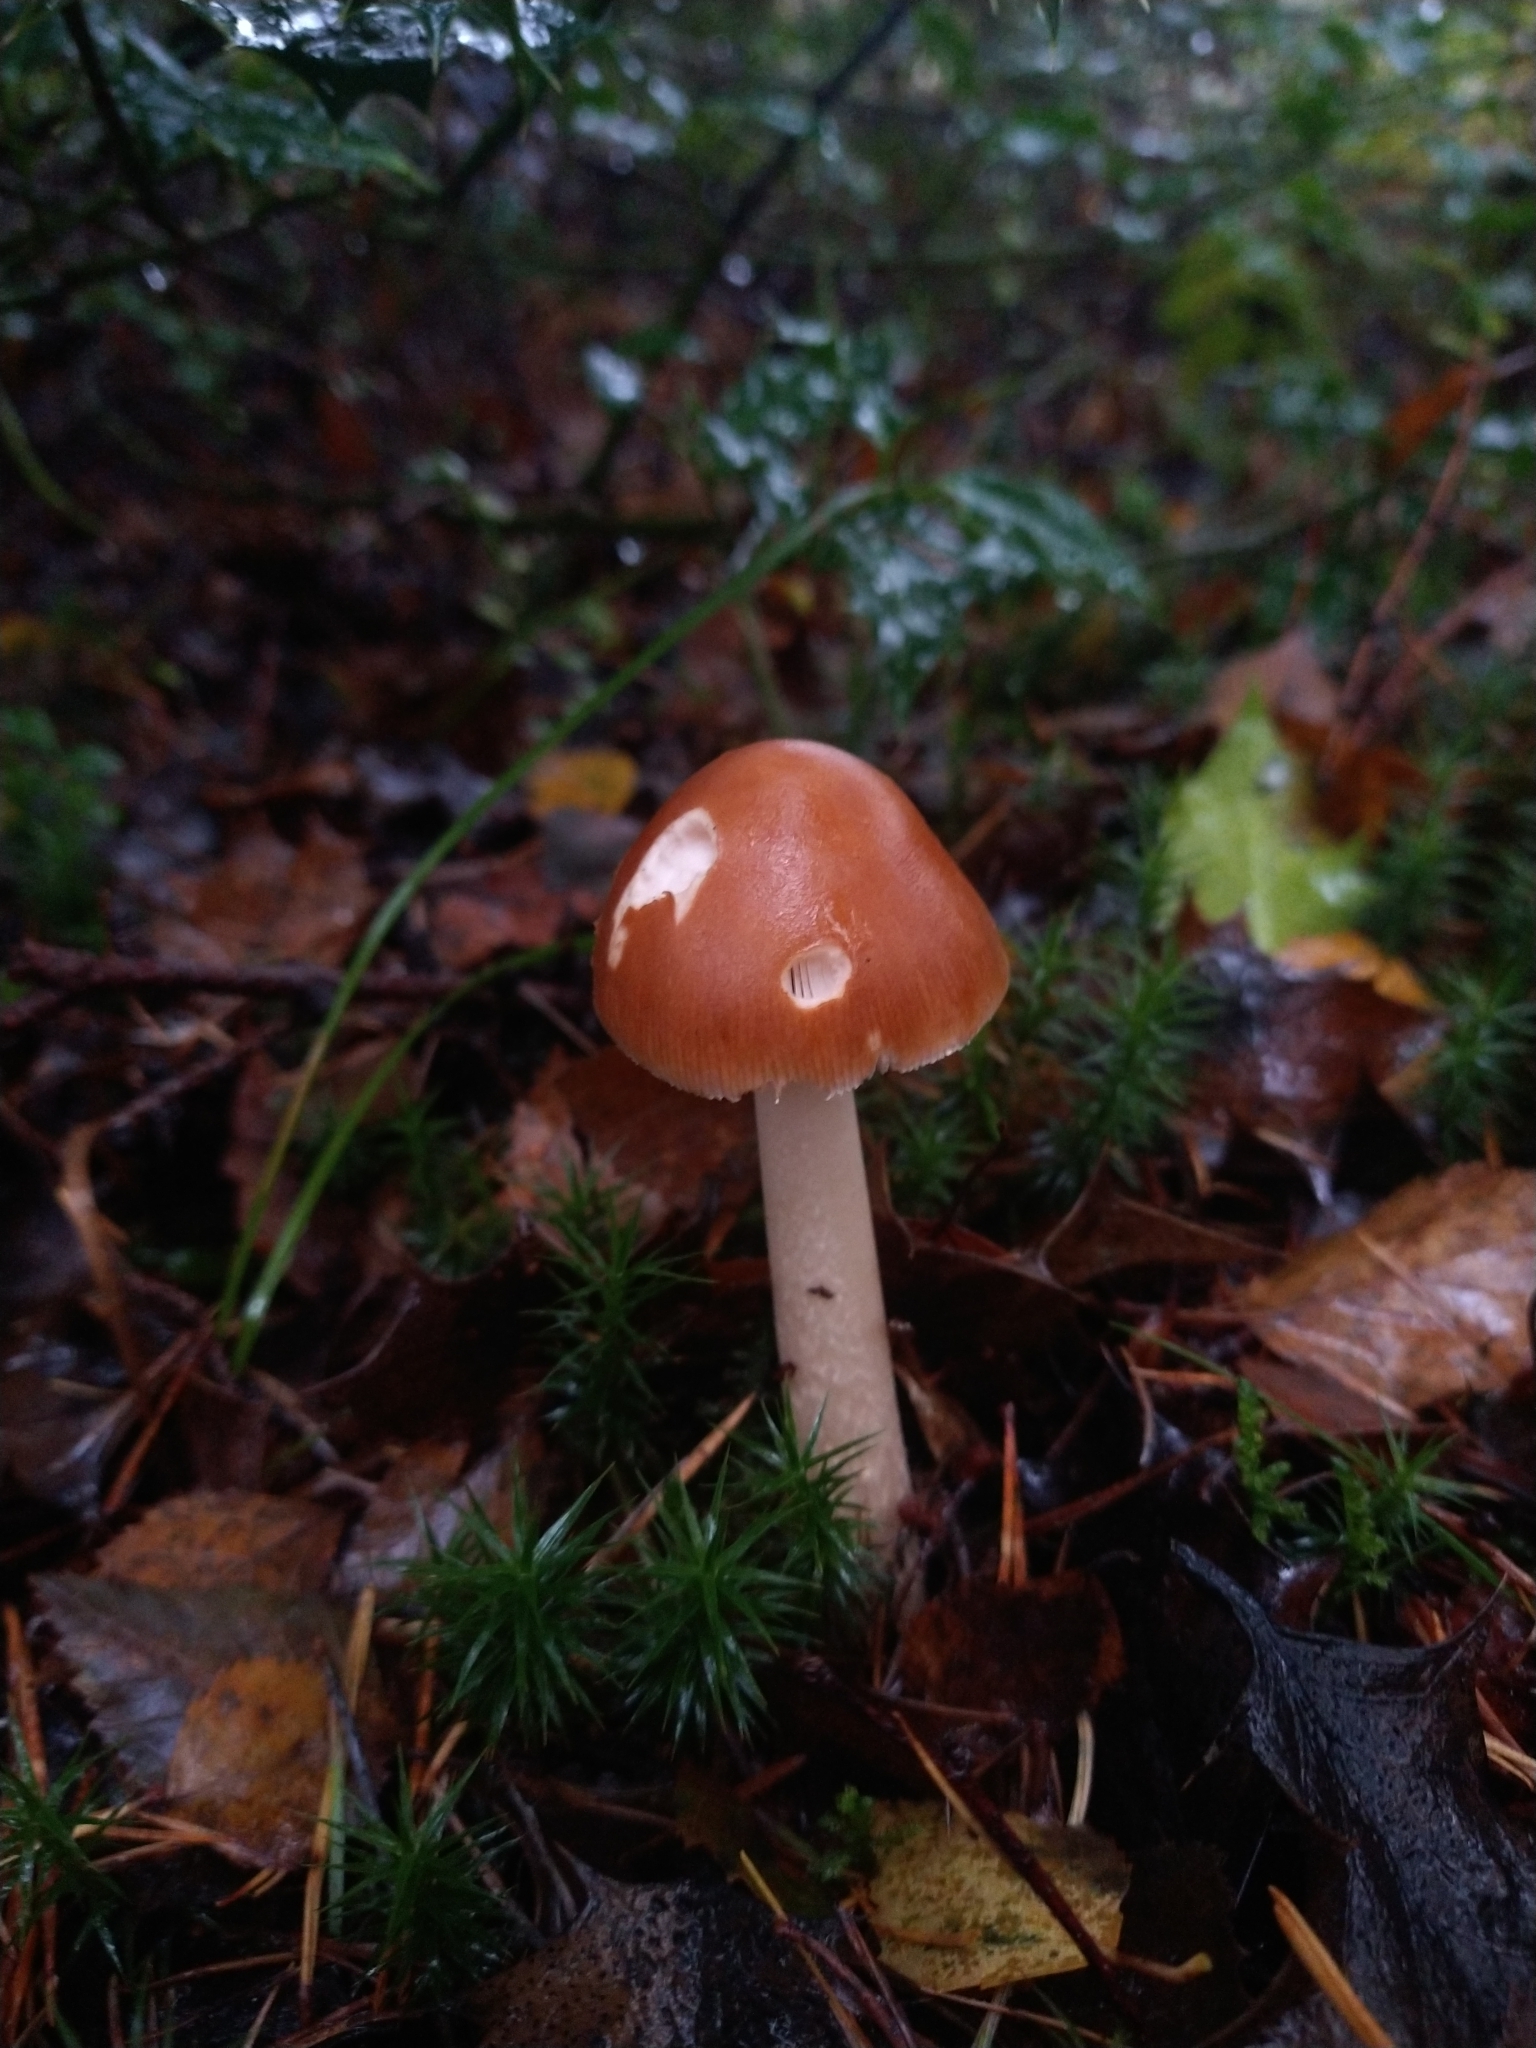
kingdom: Fungi
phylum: Basidiomycota
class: Agaricomycetes
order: Agaricales
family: Amanitaceae
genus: Amanita
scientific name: Amanita fulva
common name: Tawny grisette
